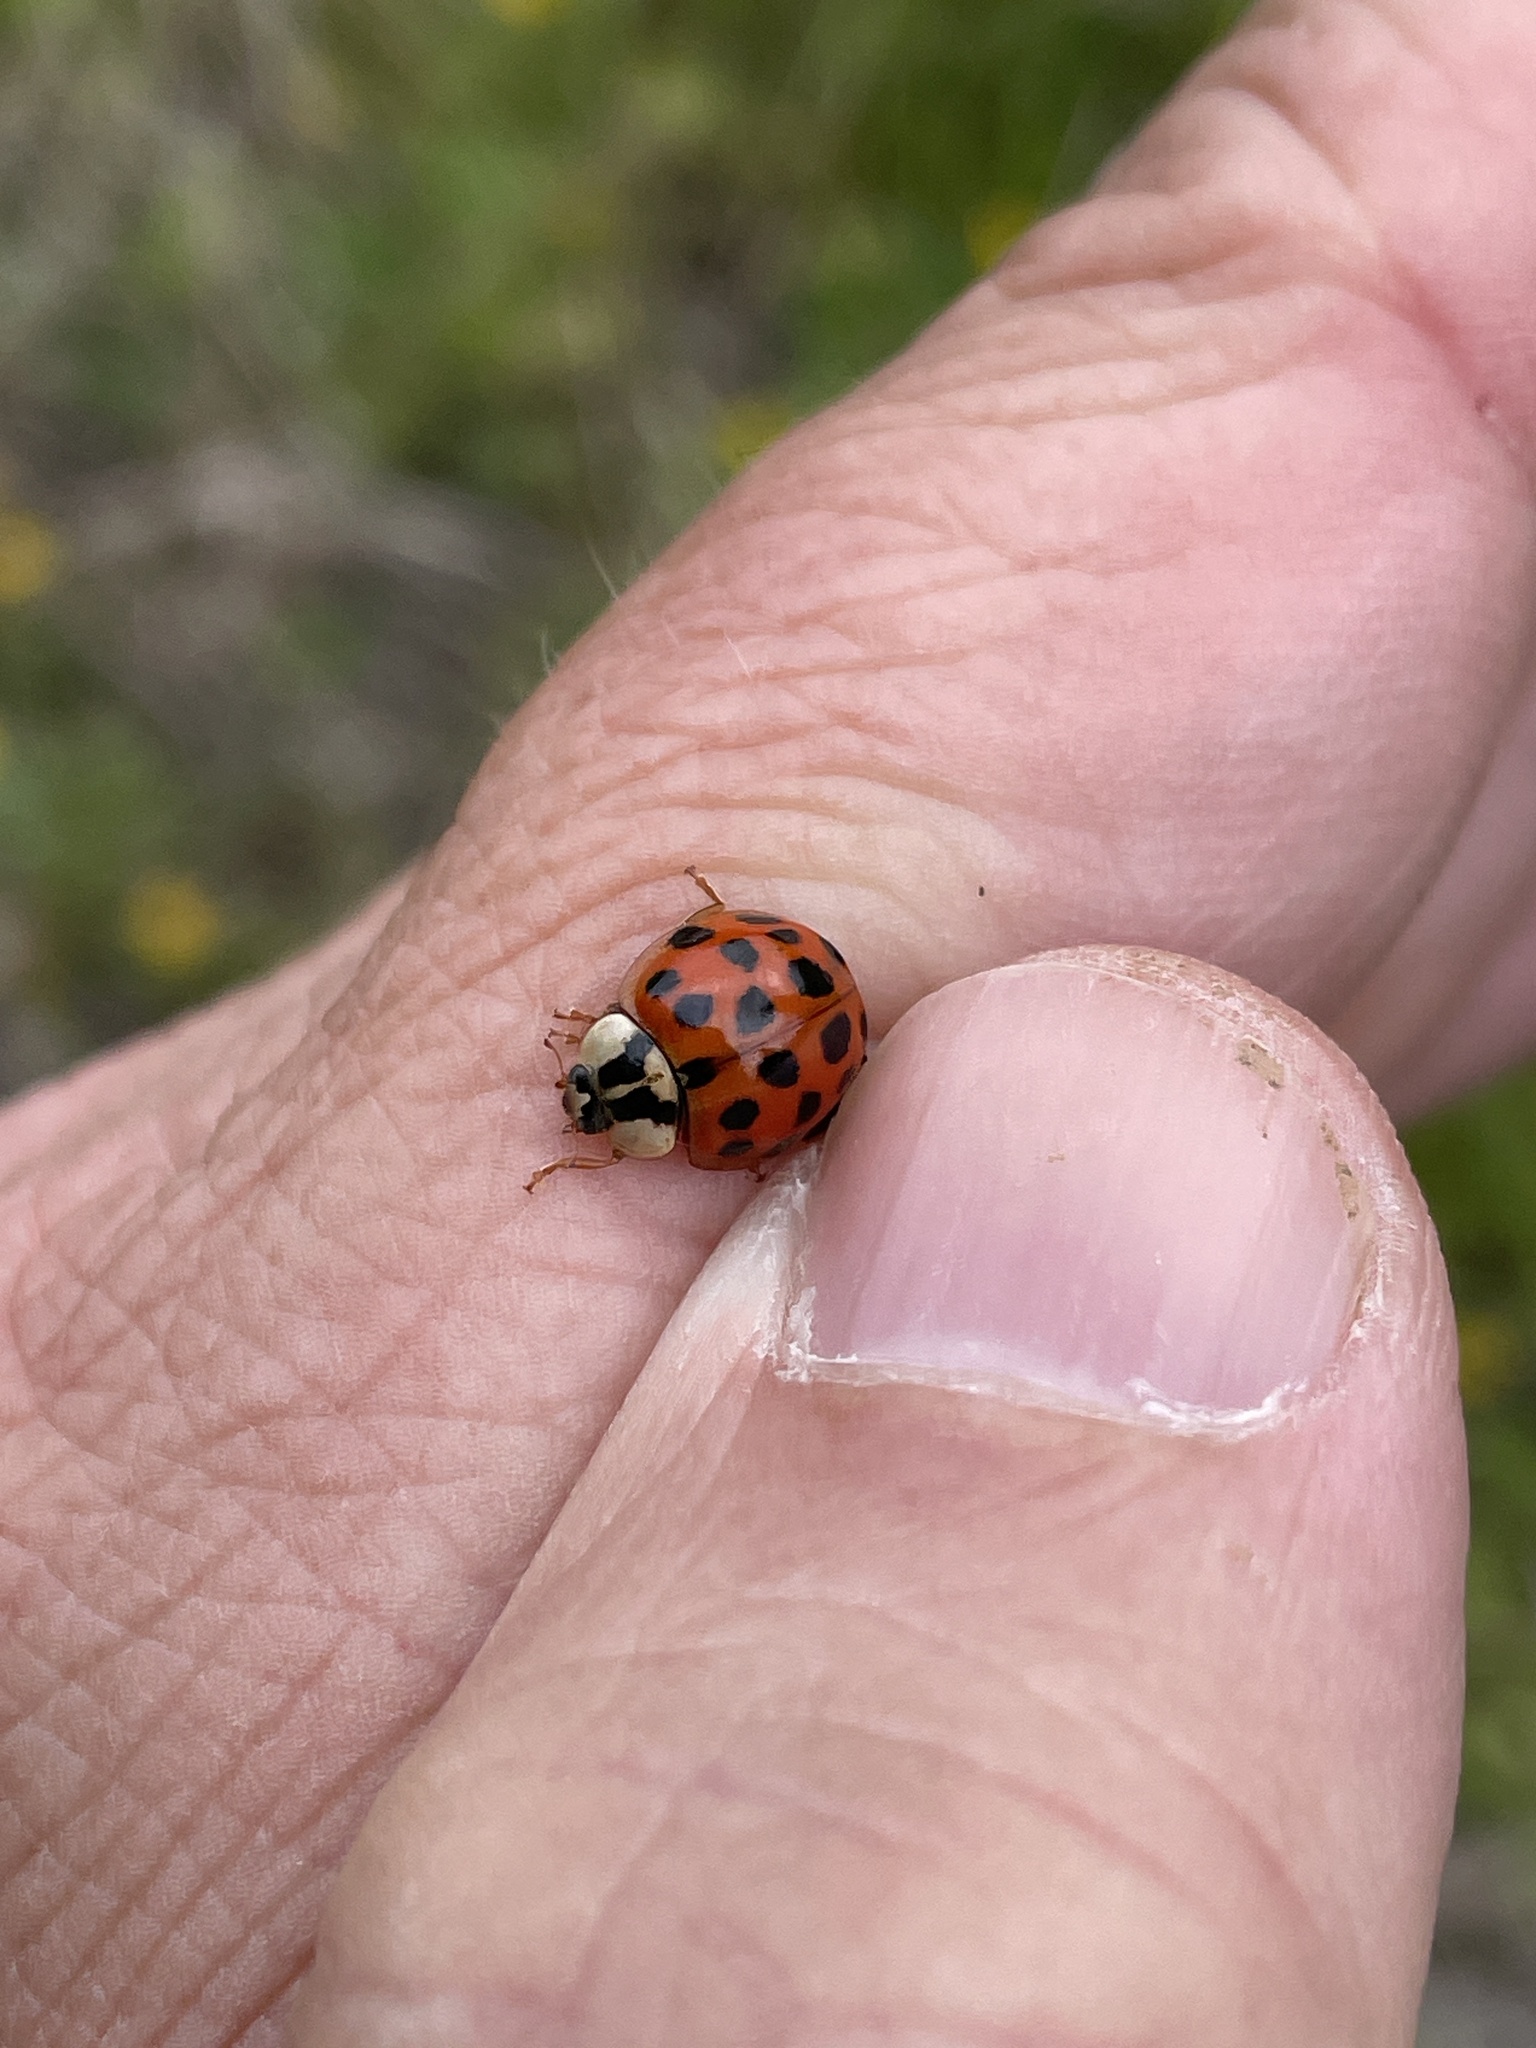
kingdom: Animalia
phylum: Arthropoda
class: Insecta
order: Coleoptera
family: Coccinellidae
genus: Harmonia
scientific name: Harmonia axyridis
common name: Harlequin ladybird
